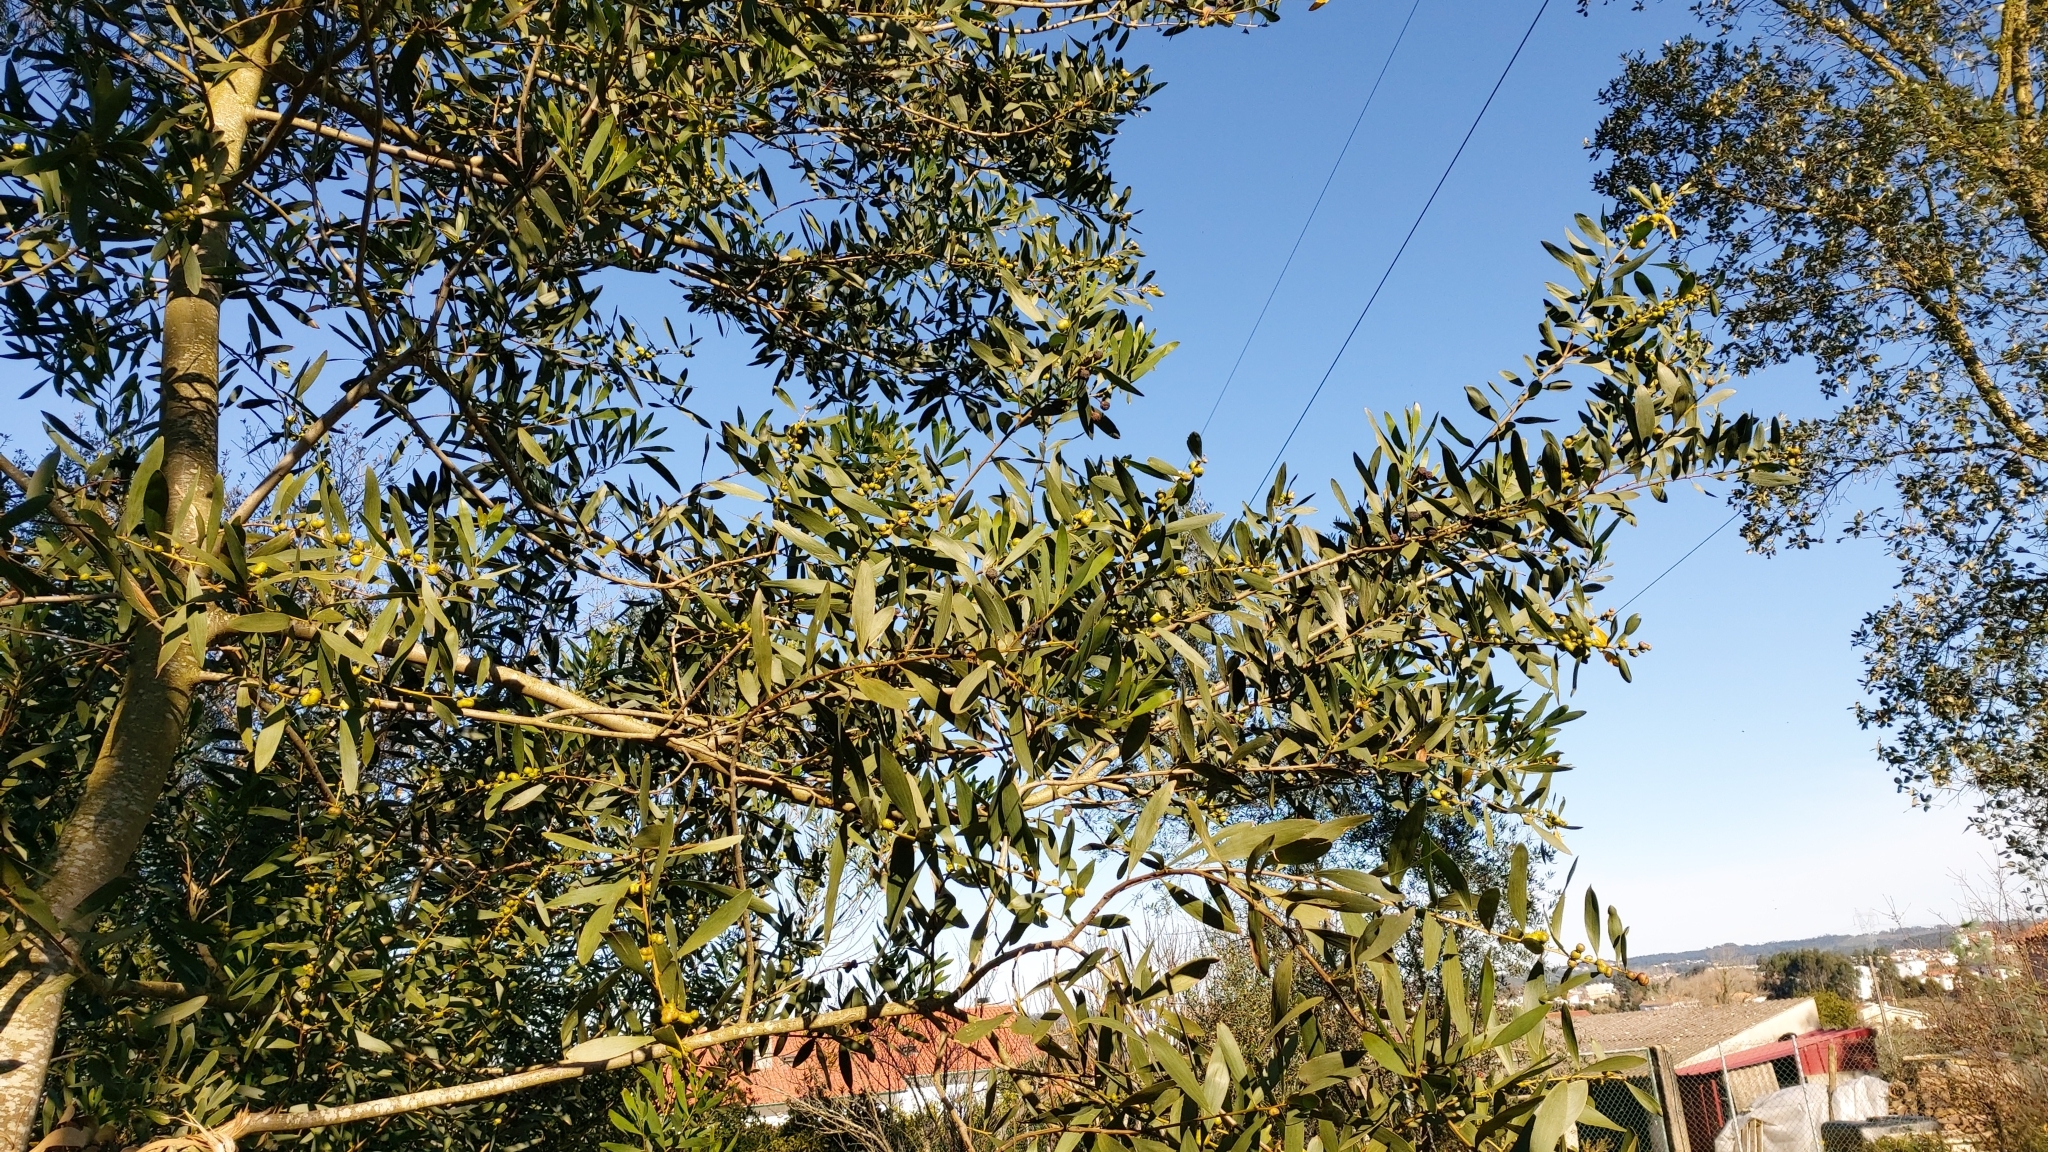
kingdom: Plantae
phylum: Tracheophyta
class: Magnoliopsida
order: Fabales
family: Fabaceae
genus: Acacia
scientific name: Acacia longifolia
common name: Sydney golden wattle
